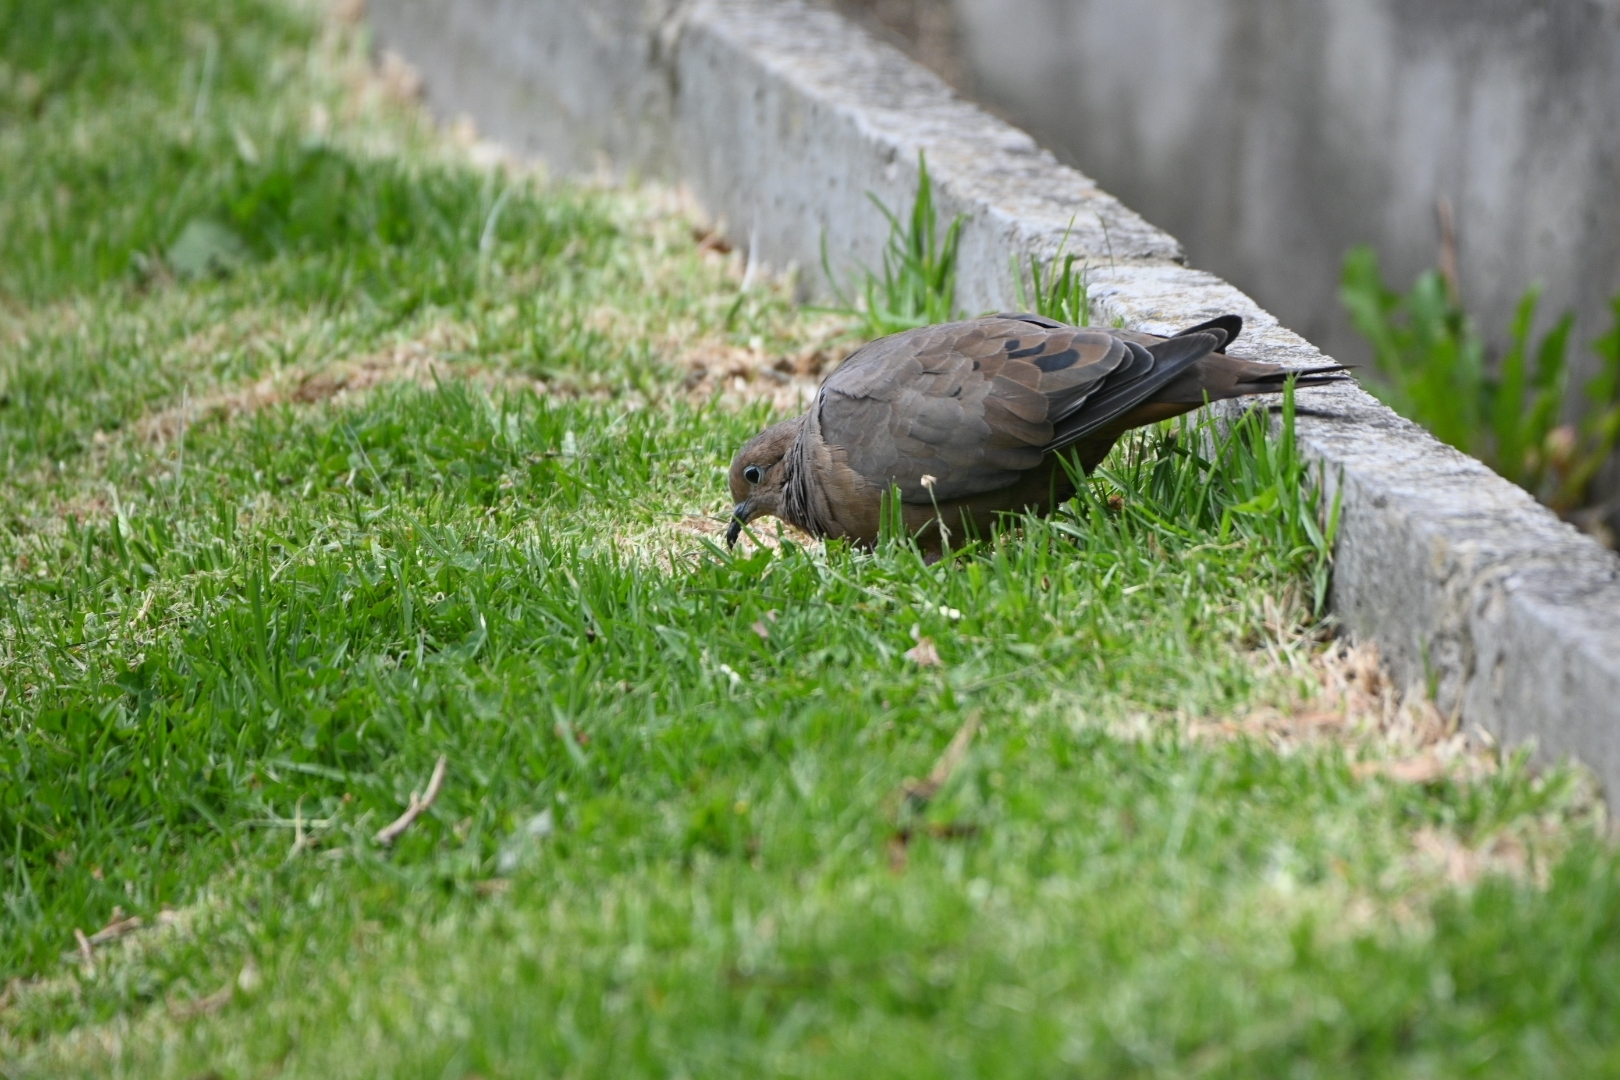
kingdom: Animalia
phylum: Chordata
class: Aves
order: Columbiformes
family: Columbidae
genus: Zenaida
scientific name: Zenaida auriculata
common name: Eared dove
